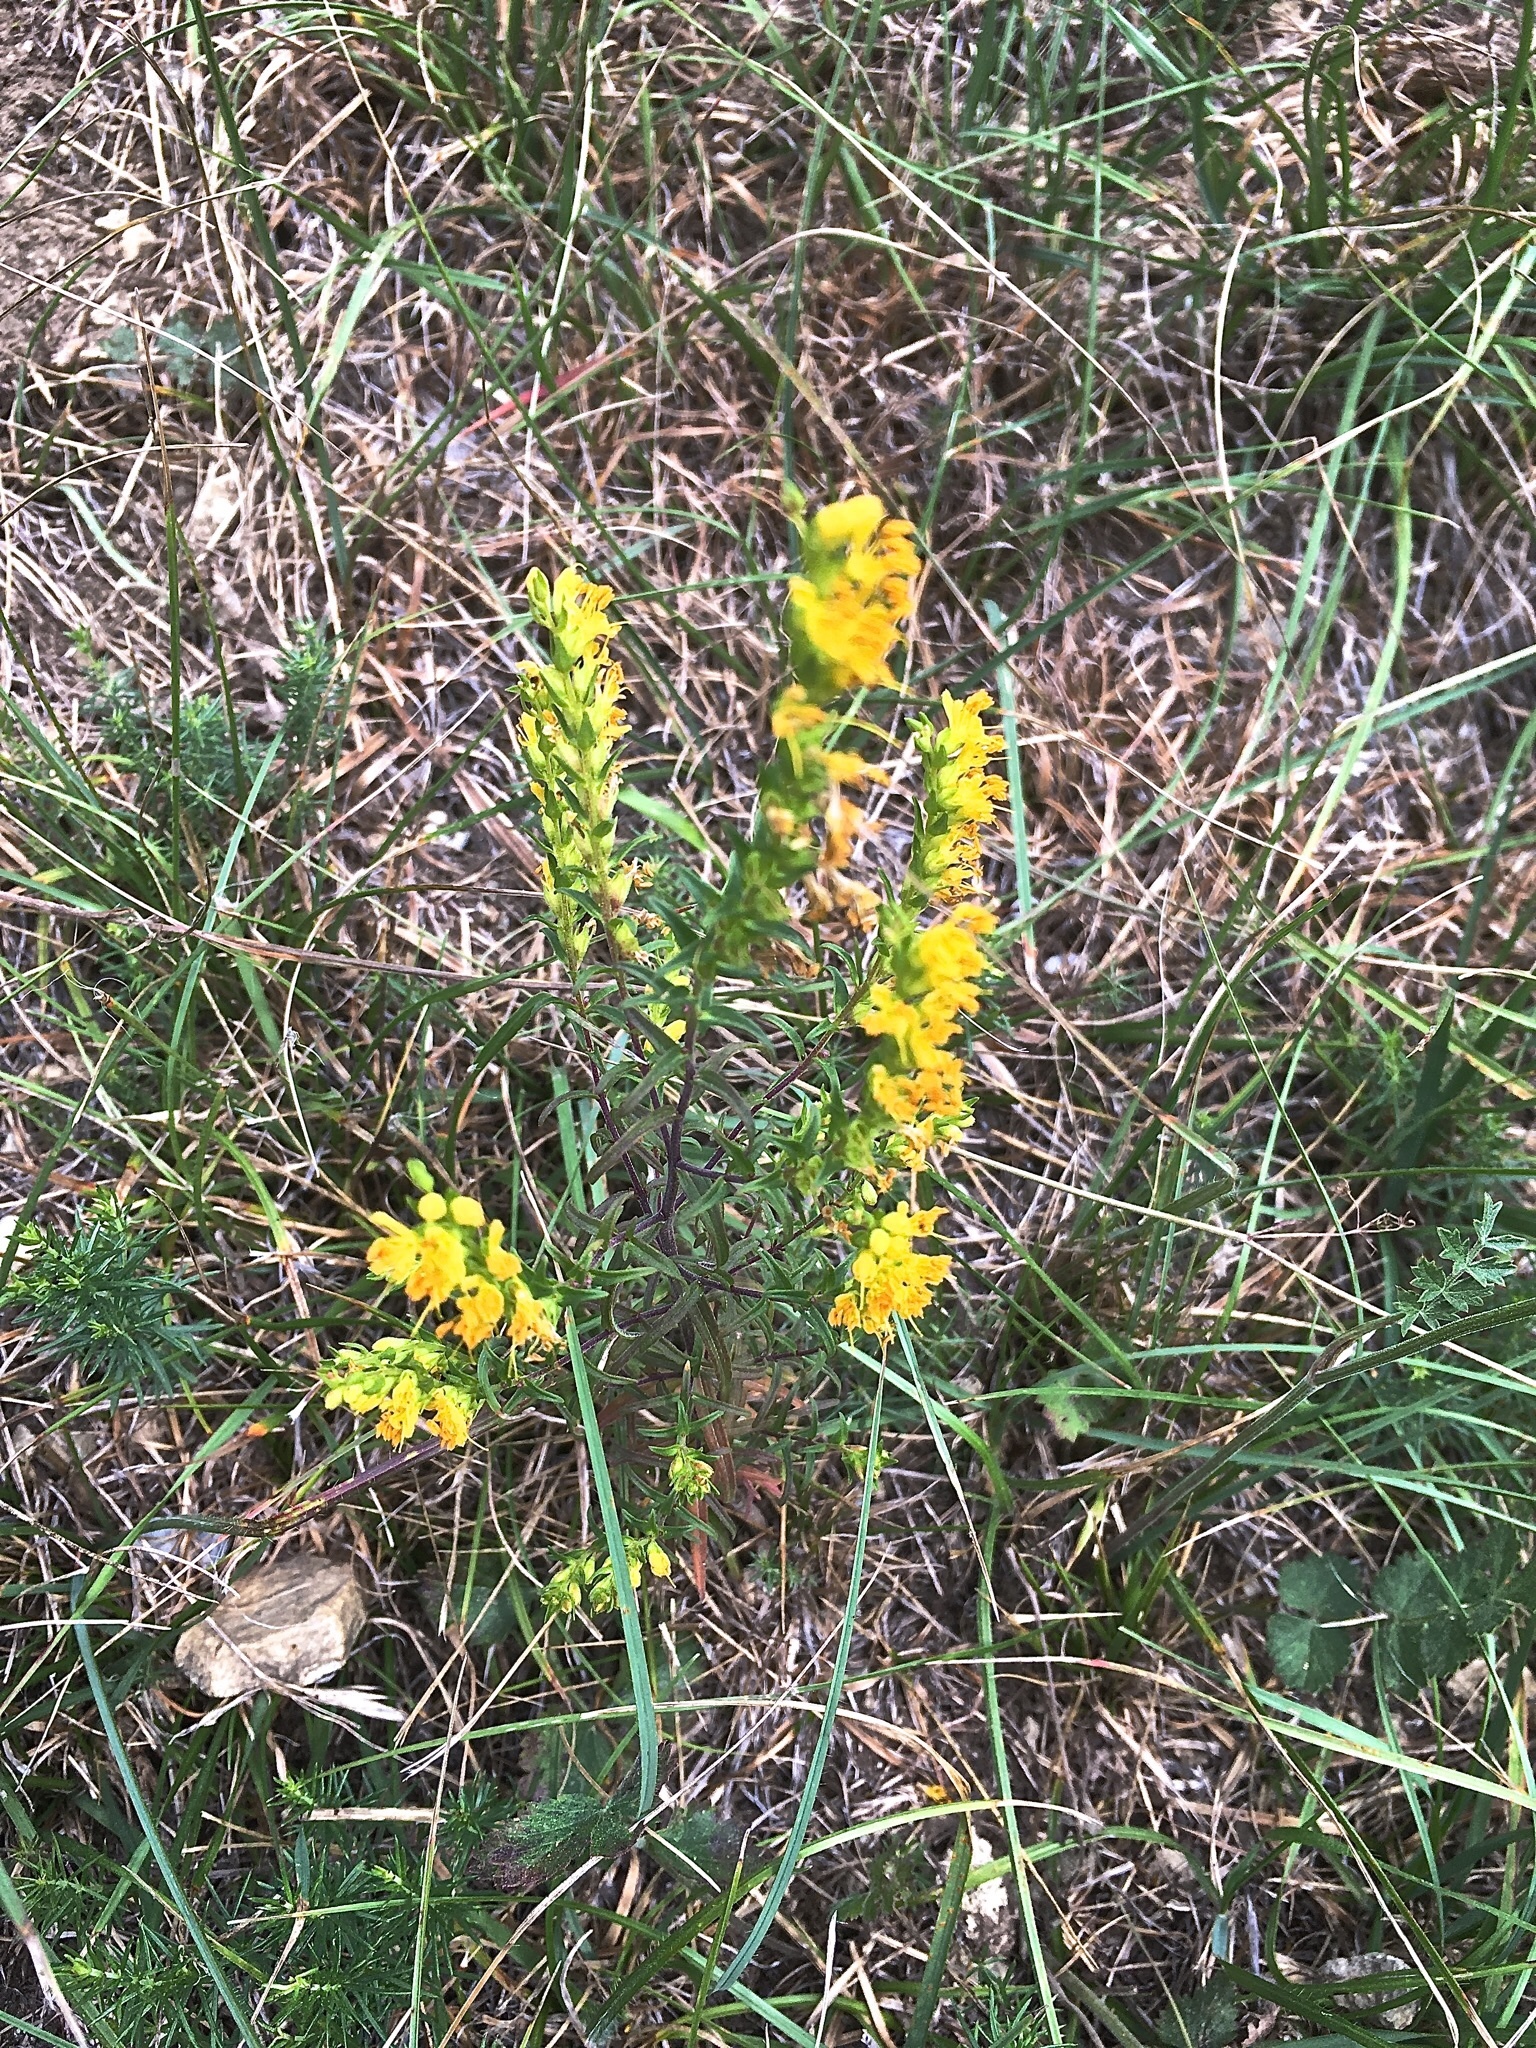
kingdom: Plantae
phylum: Tracheophyta
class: Magnoliopsida
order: Lamiales
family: Orobanchaceae
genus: Odontites
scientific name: Odontites luteus
